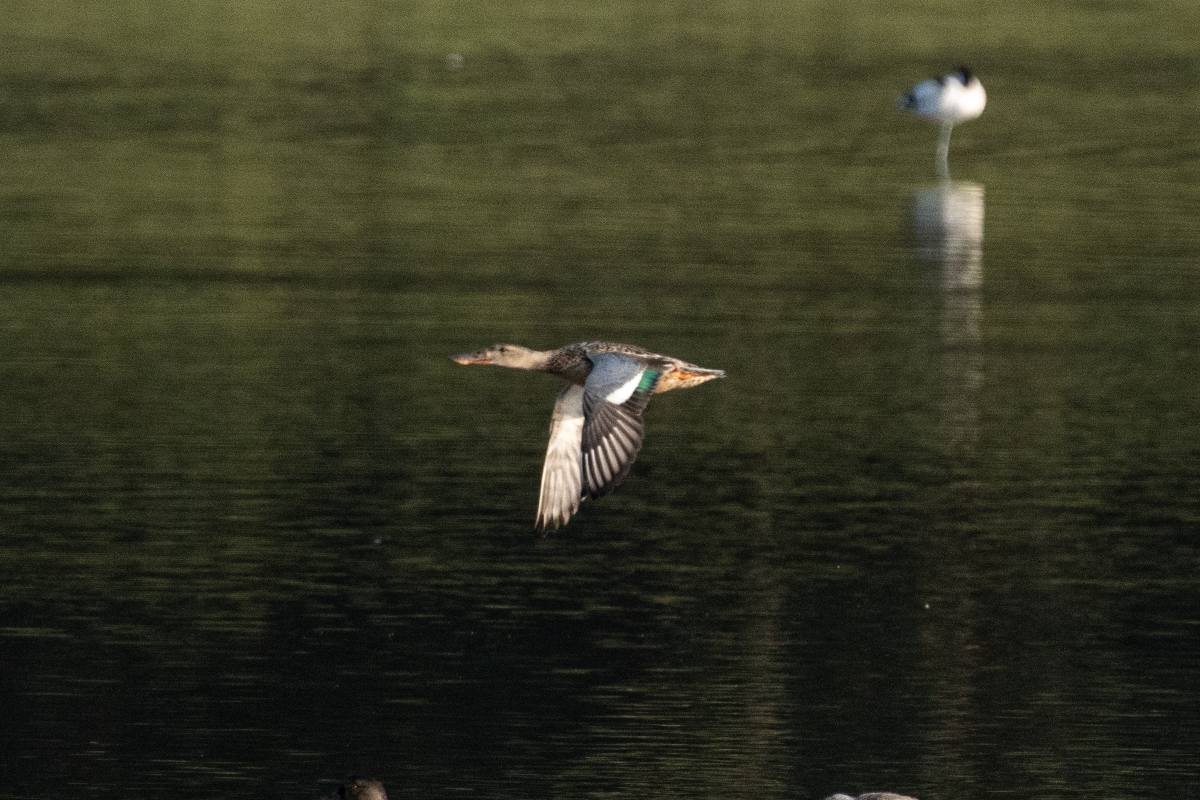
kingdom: Animalia
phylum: Chordata
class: Aves
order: Anseriformes
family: Anatidae
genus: Spatula
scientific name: Spatula clypeata
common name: Northern shoveler
